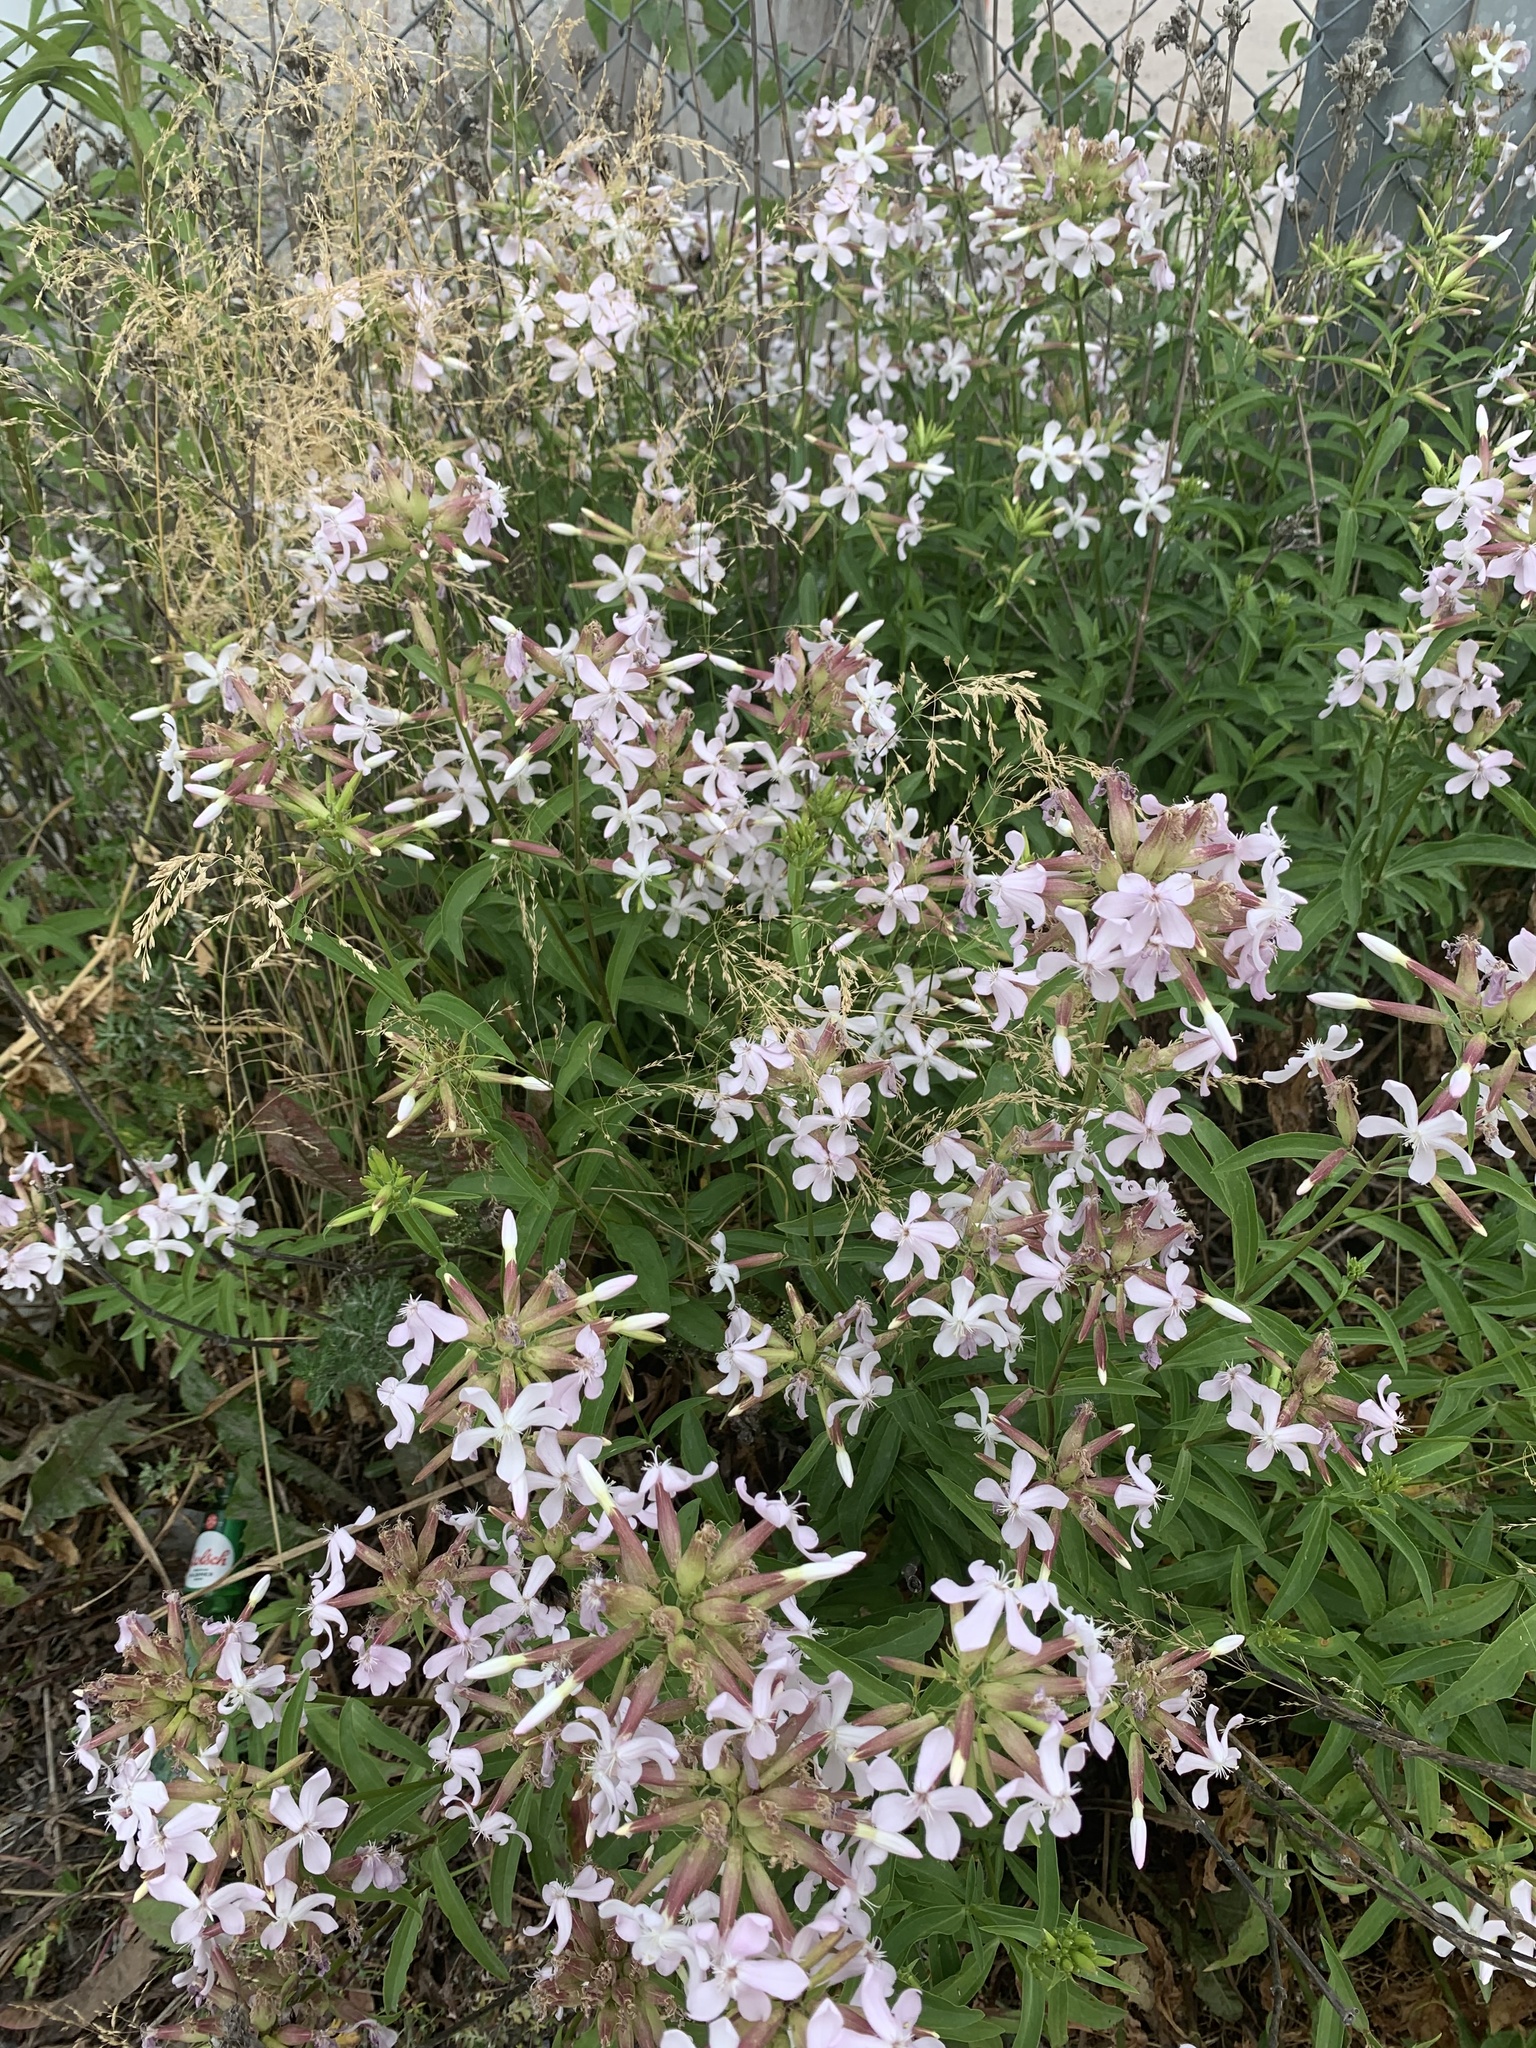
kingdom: Plantae
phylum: Tracheophyta
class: Magnoliopsida
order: Caryophyllales
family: Caryophyllaceae
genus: Saponaria
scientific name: Saponaria officinalis
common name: Soapwort
